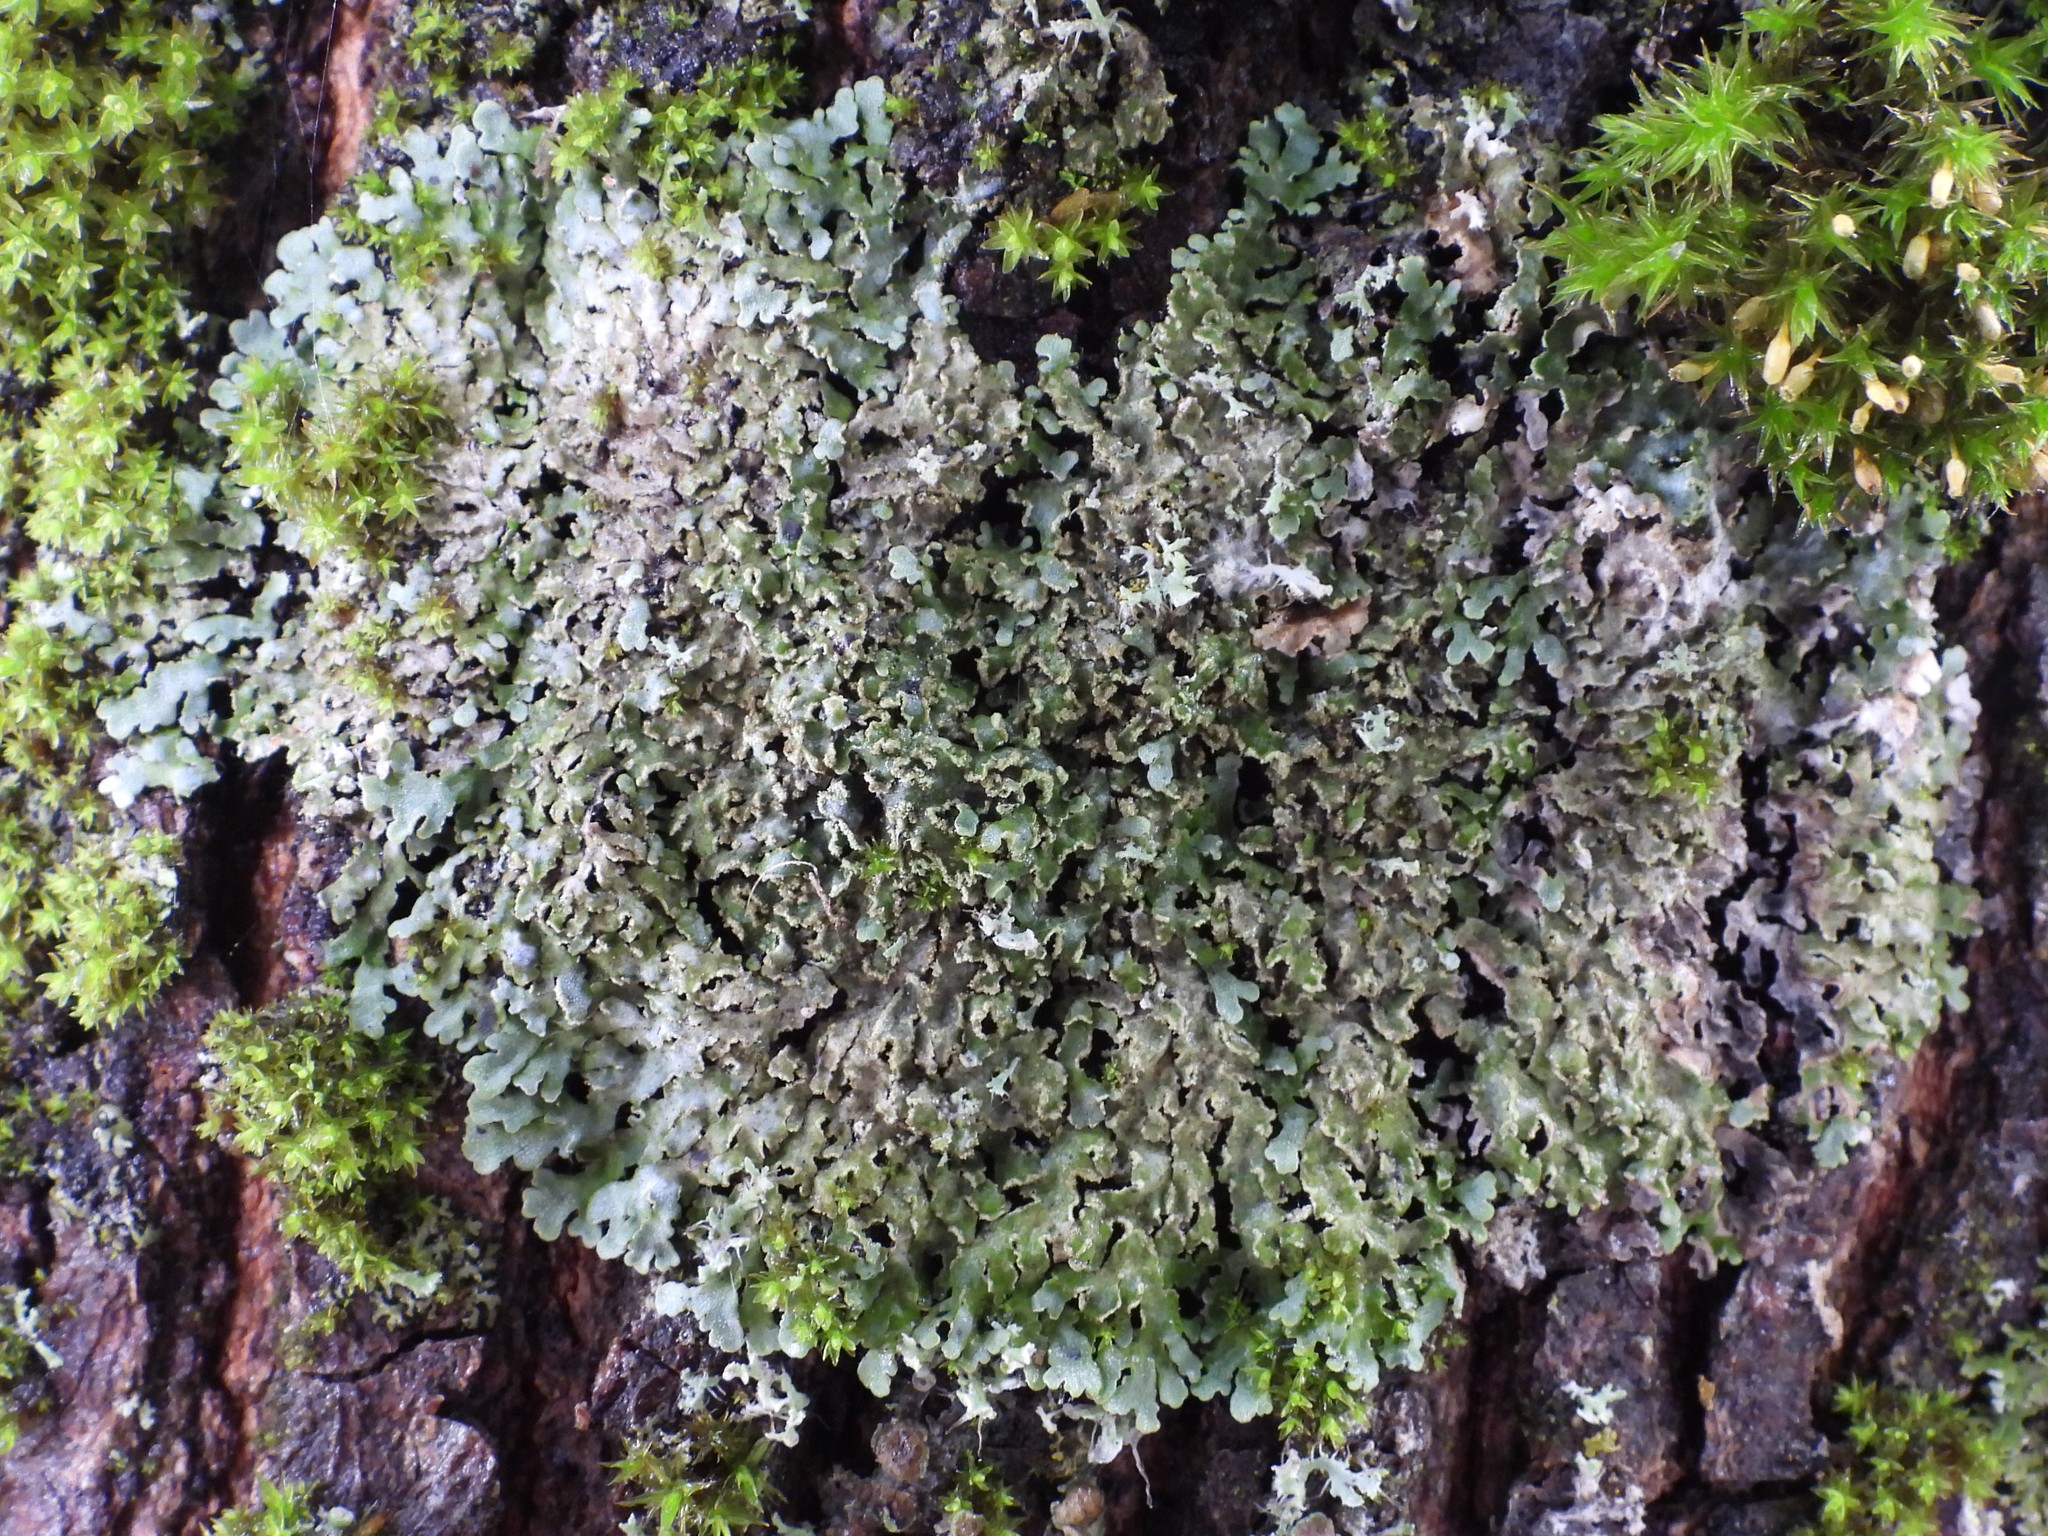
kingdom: Fungi
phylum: Ascomycota
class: Lecanoromycetes
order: Caliciales
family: Physciaceae
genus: Physconia
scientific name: Physconia enteroxantha
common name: Yellow-edged frost lichen
